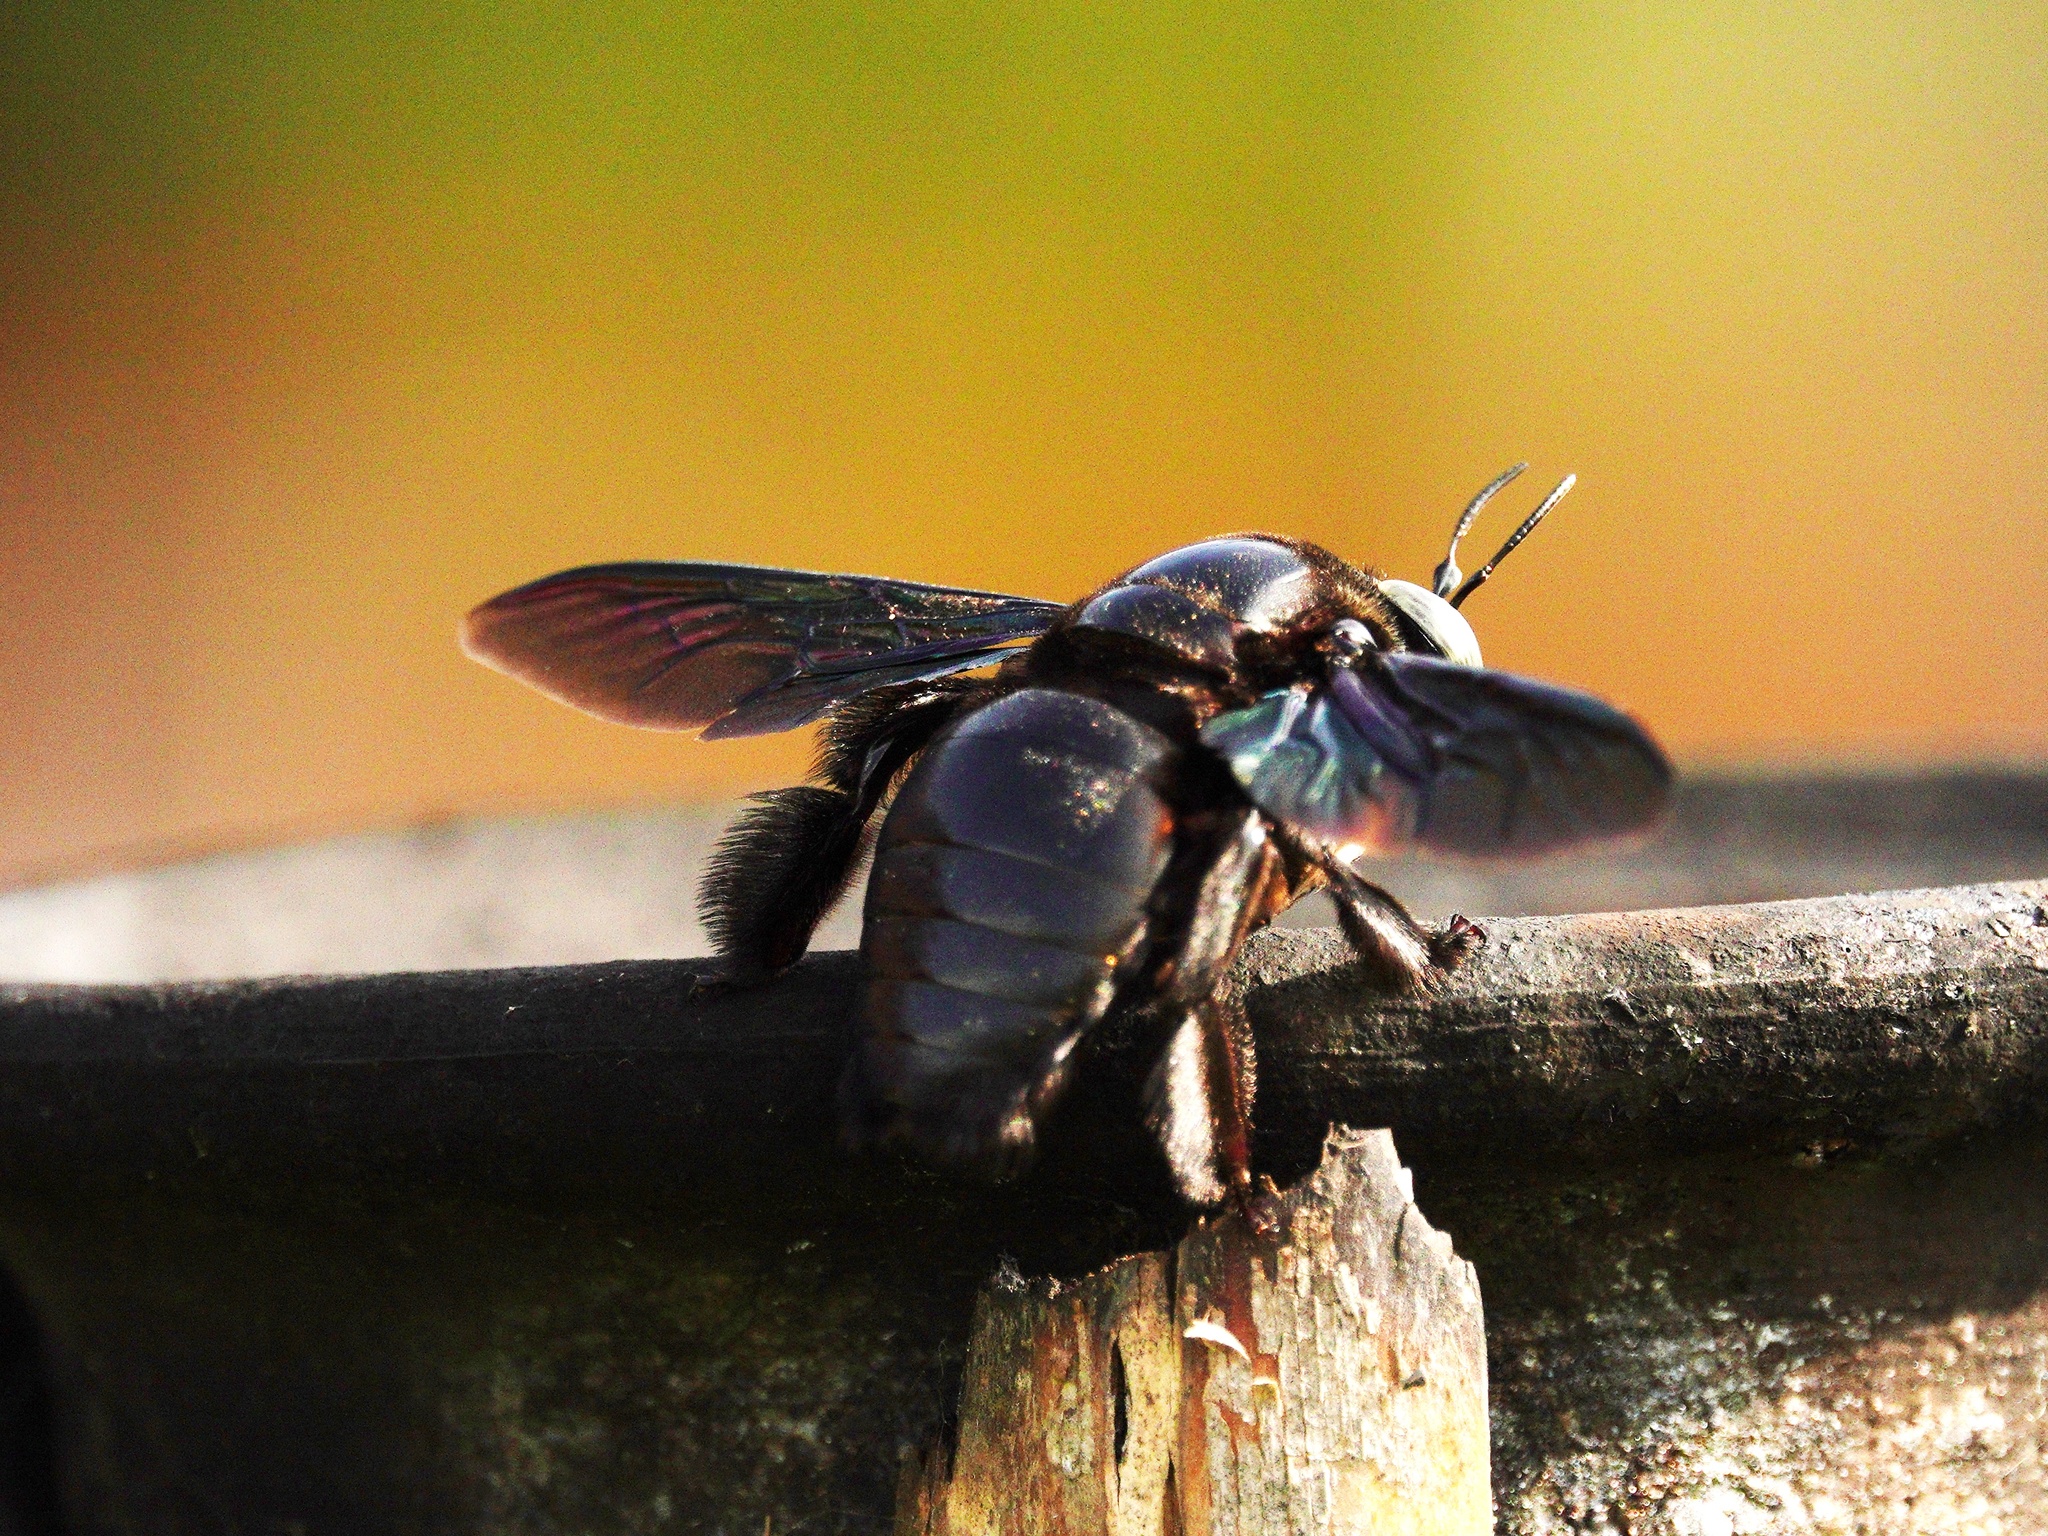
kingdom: Animalia
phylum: Arthropoda
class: Insecta
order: Hymenoptera
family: Apidae
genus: Xylocopa
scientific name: Xylocopa latipes
